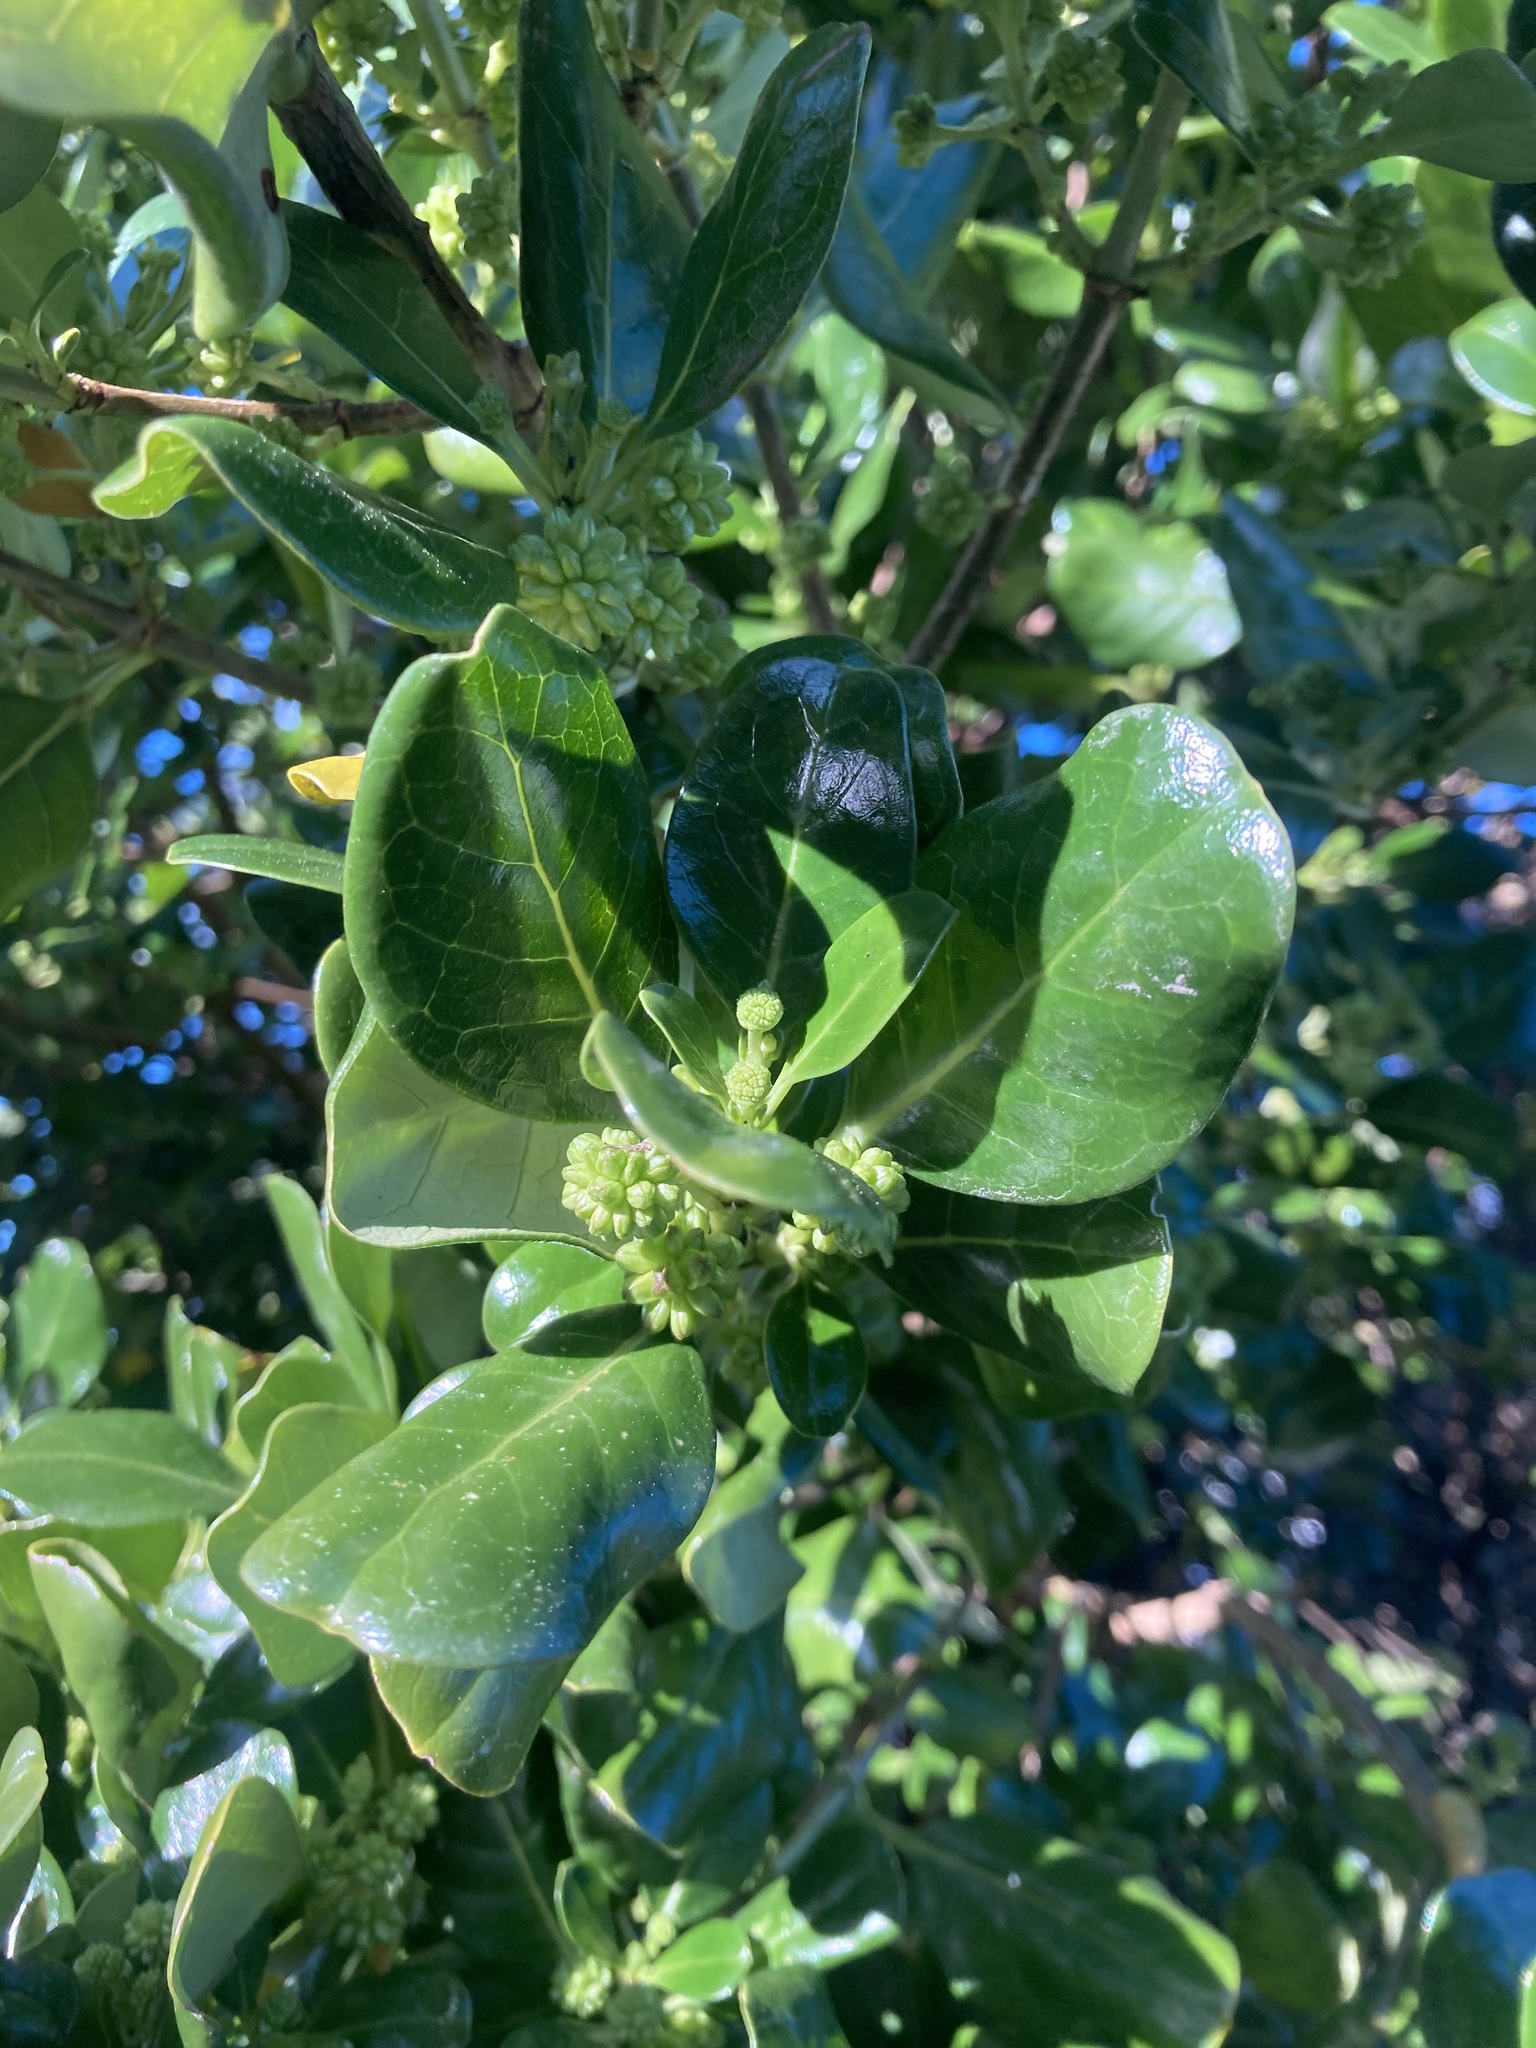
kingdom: Plantae
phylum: Tracheophyta
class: Magnoliopsida
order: Gentianales
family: Rubiaceae
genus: Coprosma
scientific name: Coprosma repens
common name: Tree bedstraw
